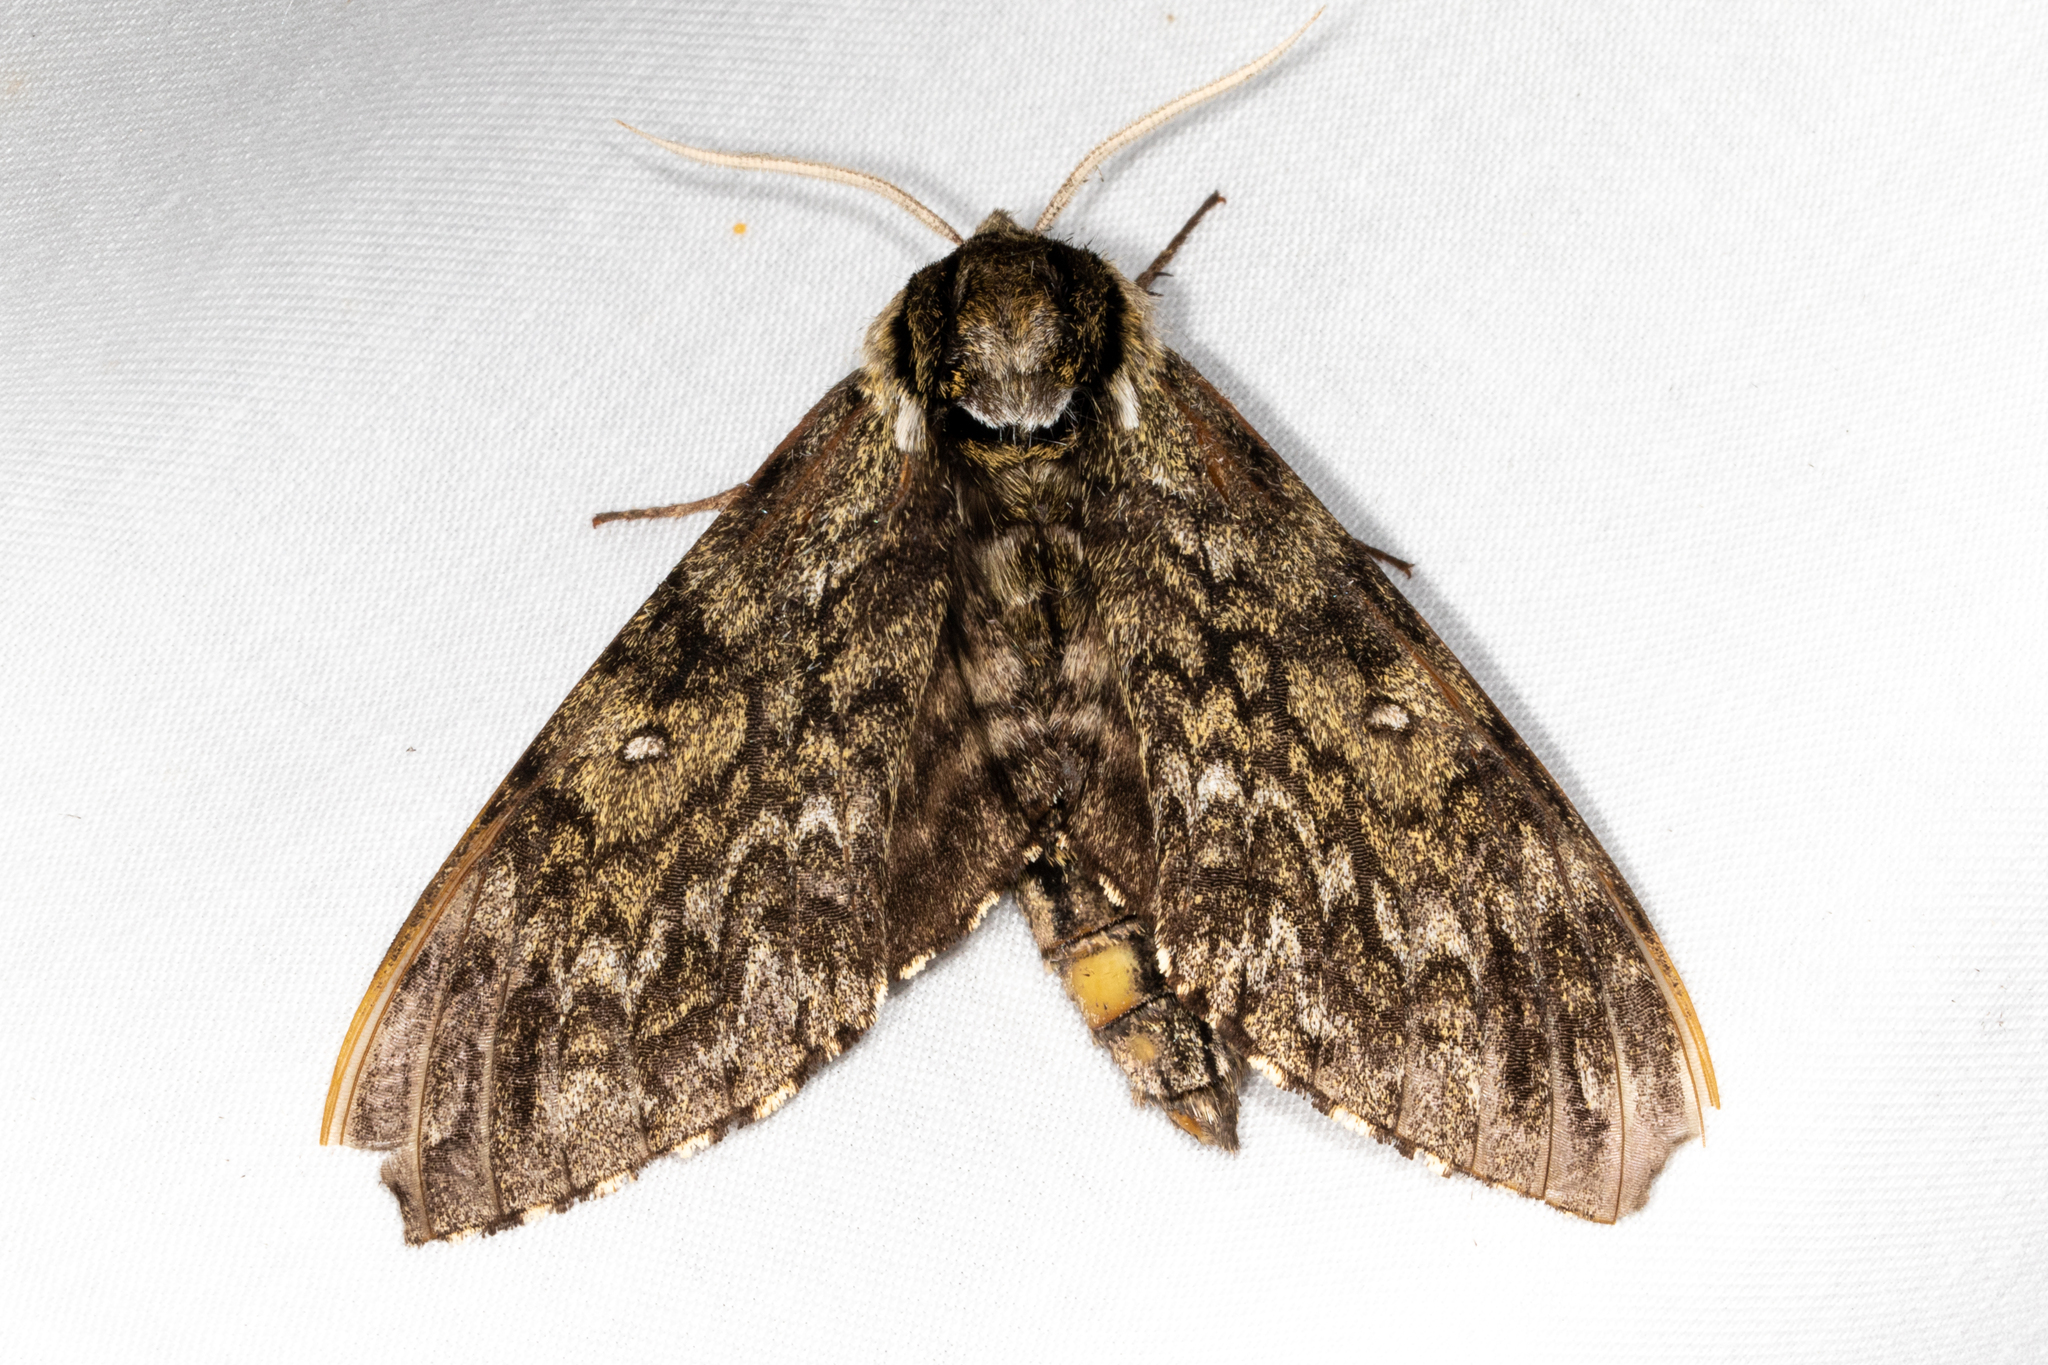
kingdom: Animalia
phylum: Arthropoda
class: Insecta
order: Lepidoptera
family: Sphingidae
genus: Ceratomia
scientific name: Ceratomia undulosa
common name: Waved sphinx
